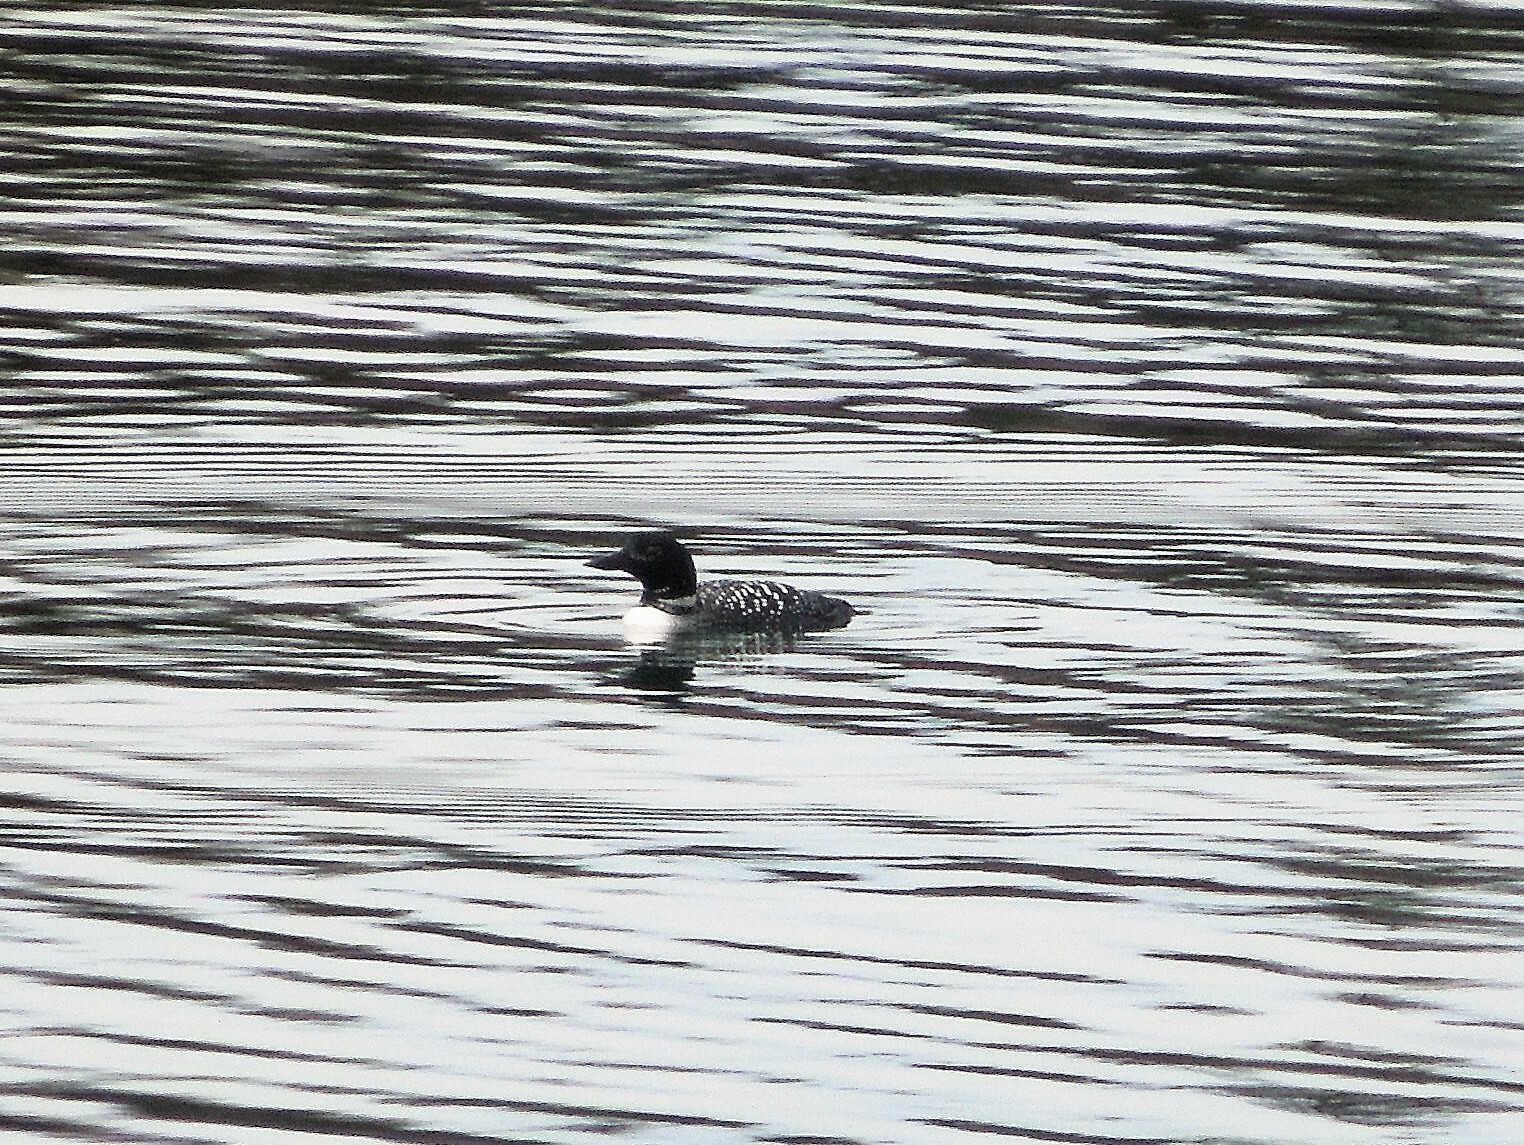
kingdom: Animalia
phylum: Chordata
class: Aves
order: Gaviiformes
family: Gaviidae
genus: Gavia
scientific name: Gavia immer
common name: Common loon
